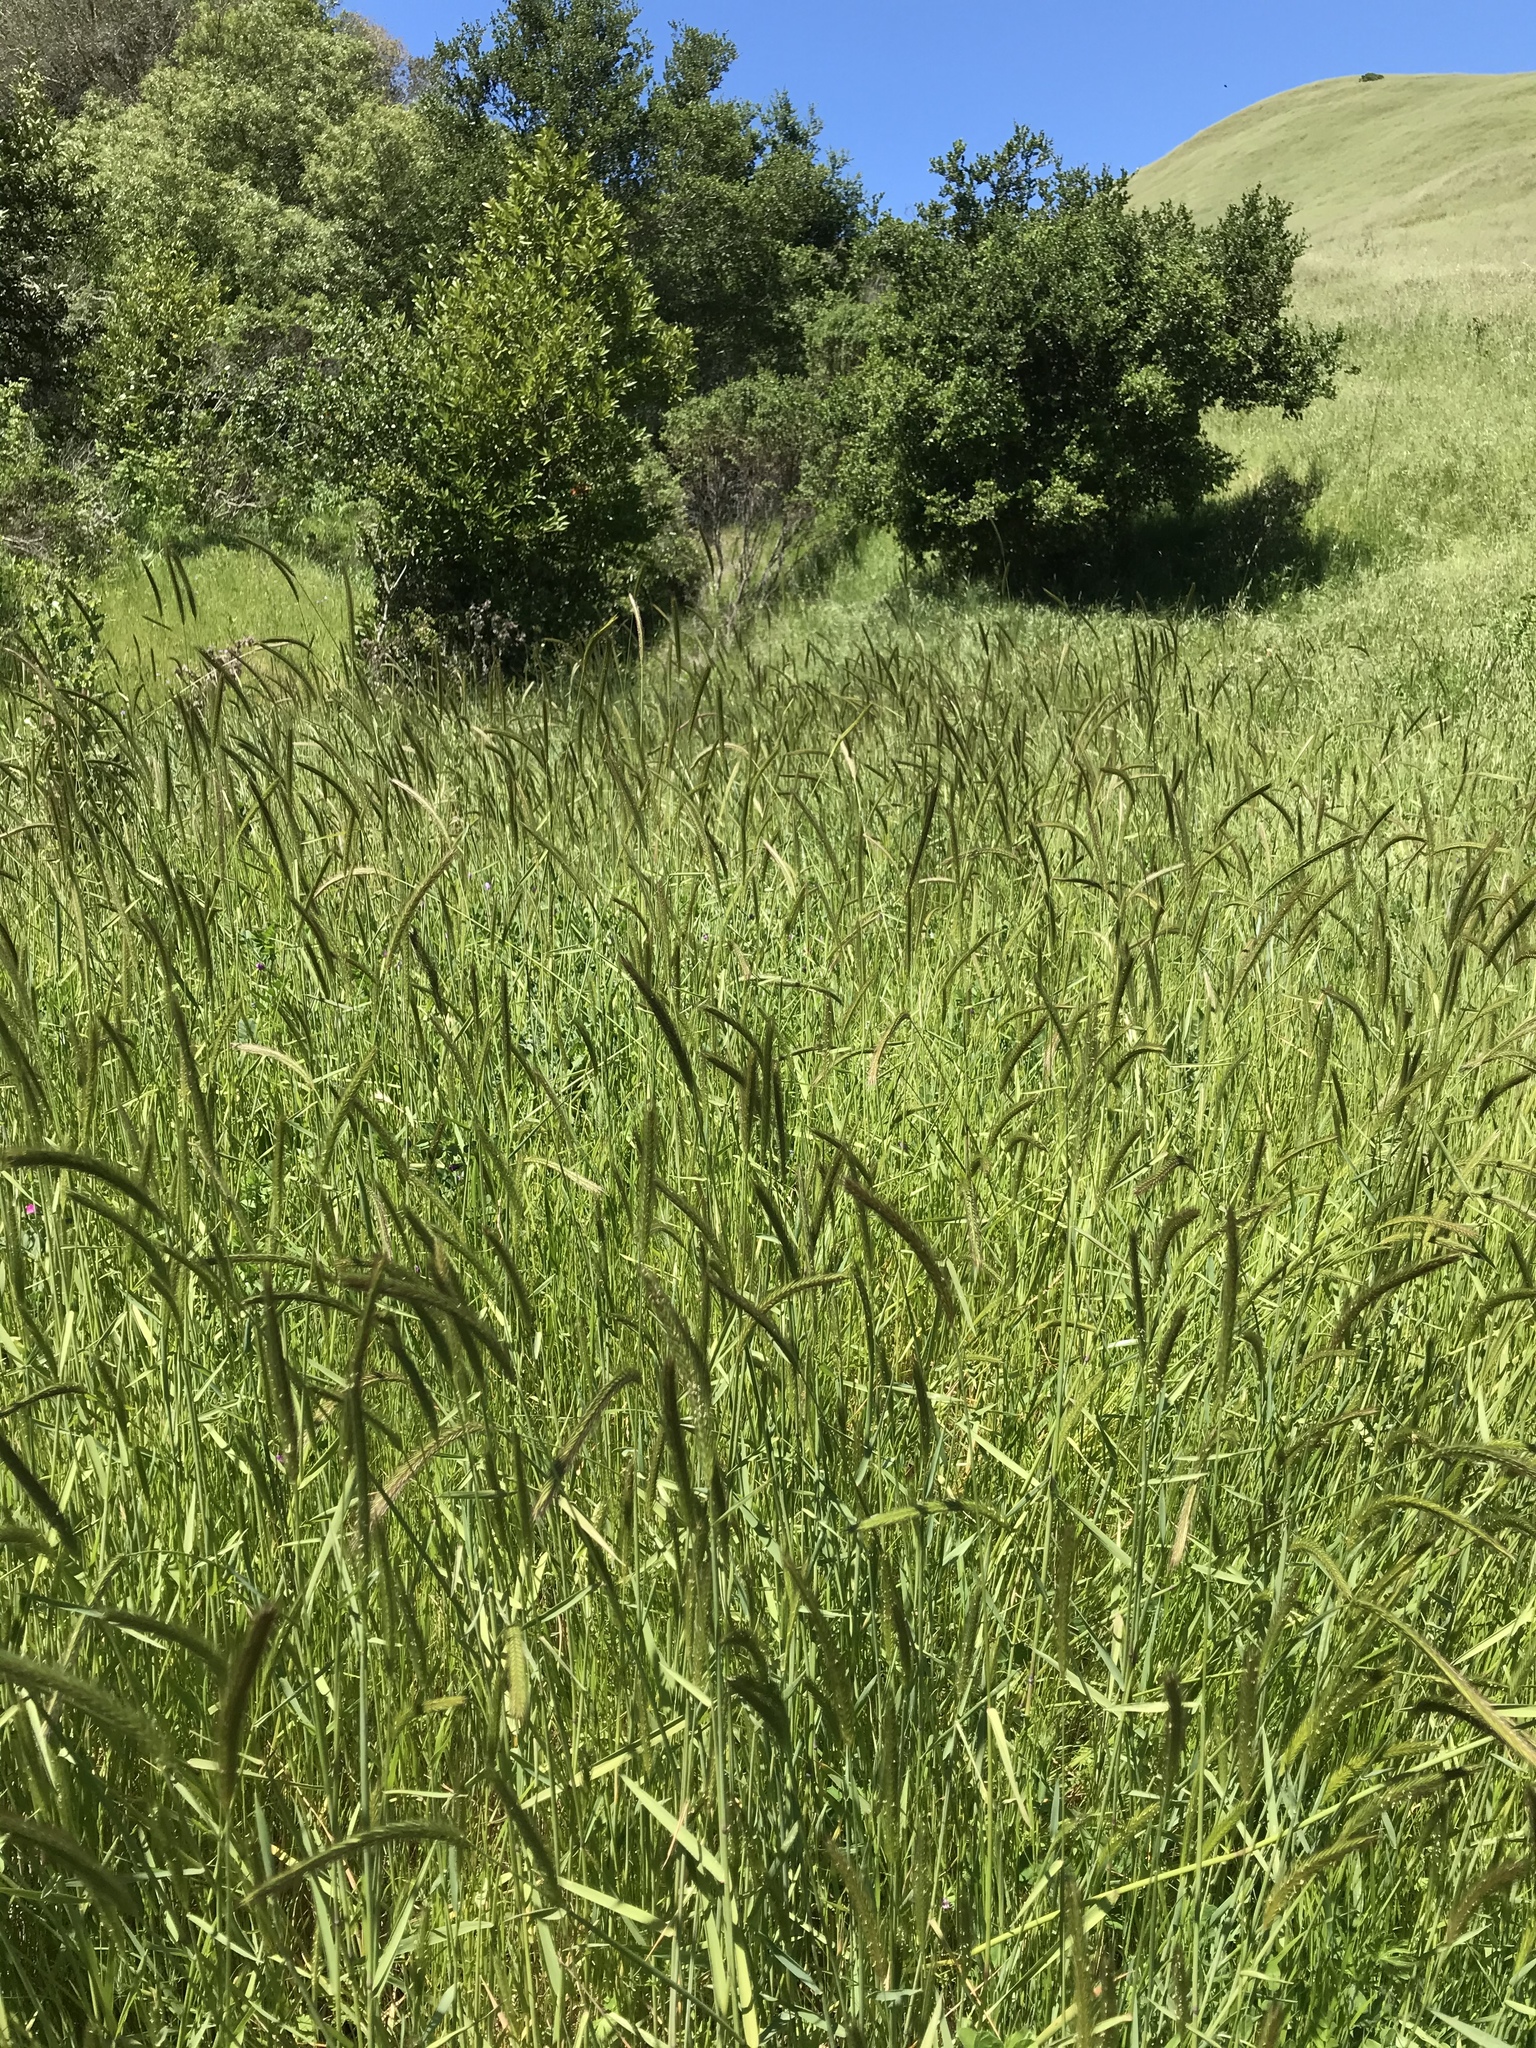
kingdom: Plantae
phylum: Tracheophyta
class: Liliopsida
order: Poales
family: Poaceae
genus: Hordeum
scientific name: Hordeum brachyantherum
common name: Meadow barley
